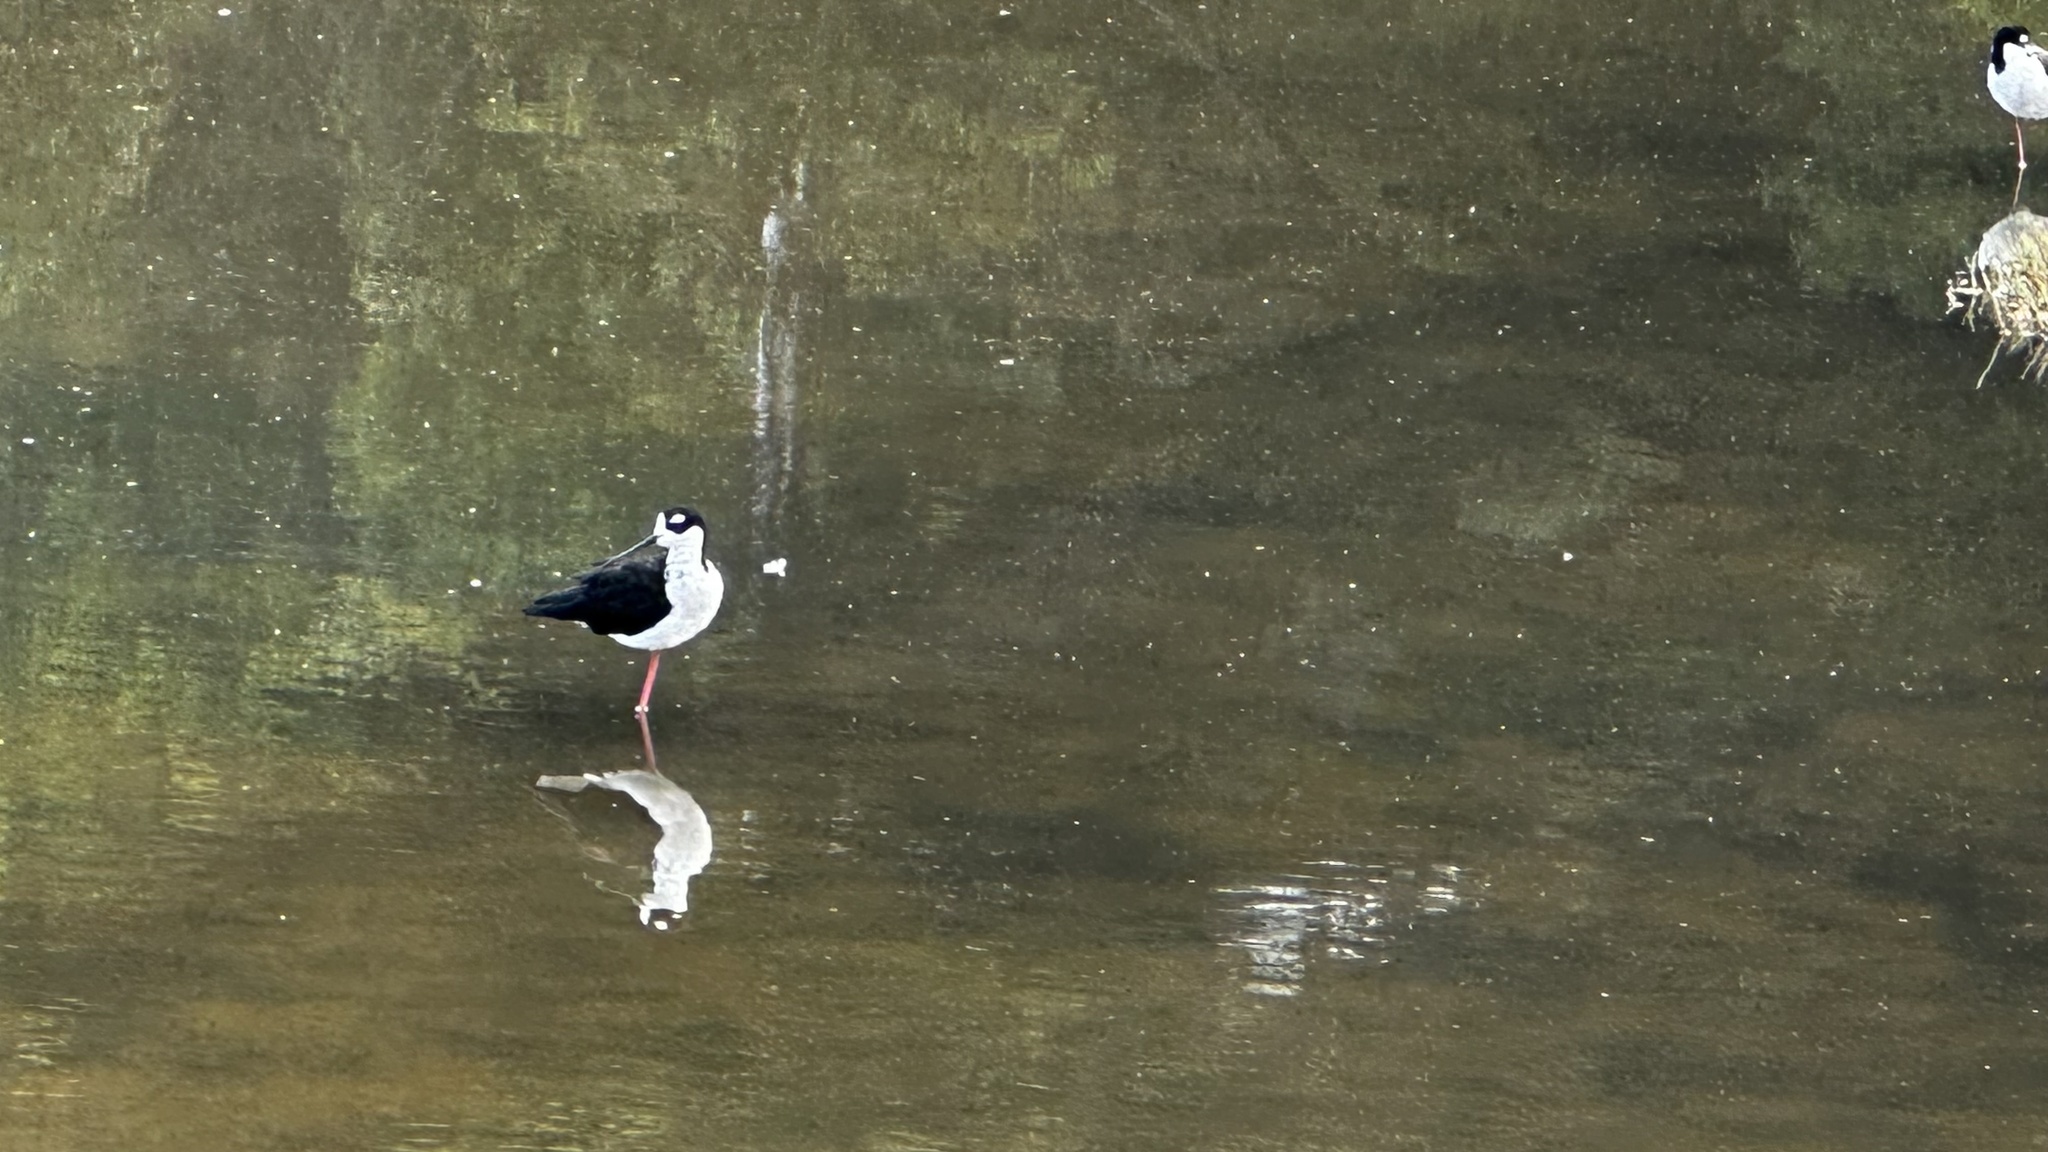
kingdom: Animalia
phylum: Chordata
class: Aves
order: Charadriiformes
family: Recurvirostridae
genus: Himantopus
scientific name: Himantopus mexicanus
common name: Black-necked stilt
